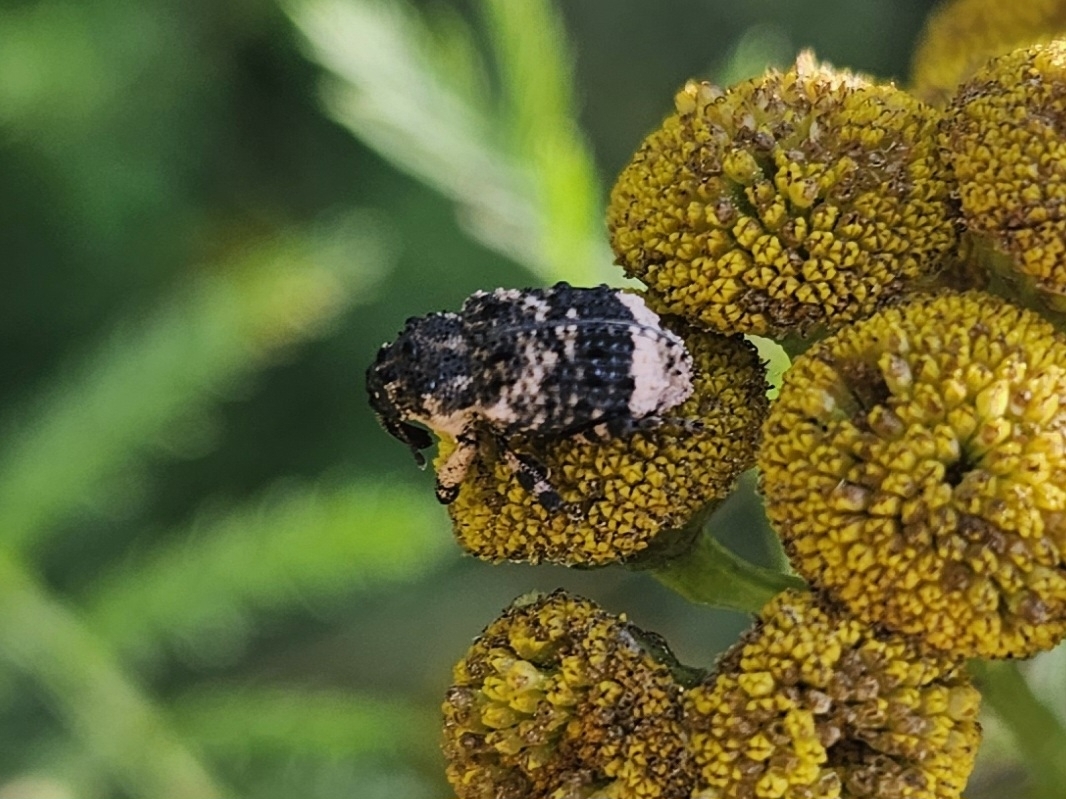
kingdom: Animalia
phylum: Arthropoda
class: Insecta
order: Coleoptera
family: Curculionidae
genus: Cryptorhynchus
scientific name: Cryptorhynchus lapathi
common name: Weevil
